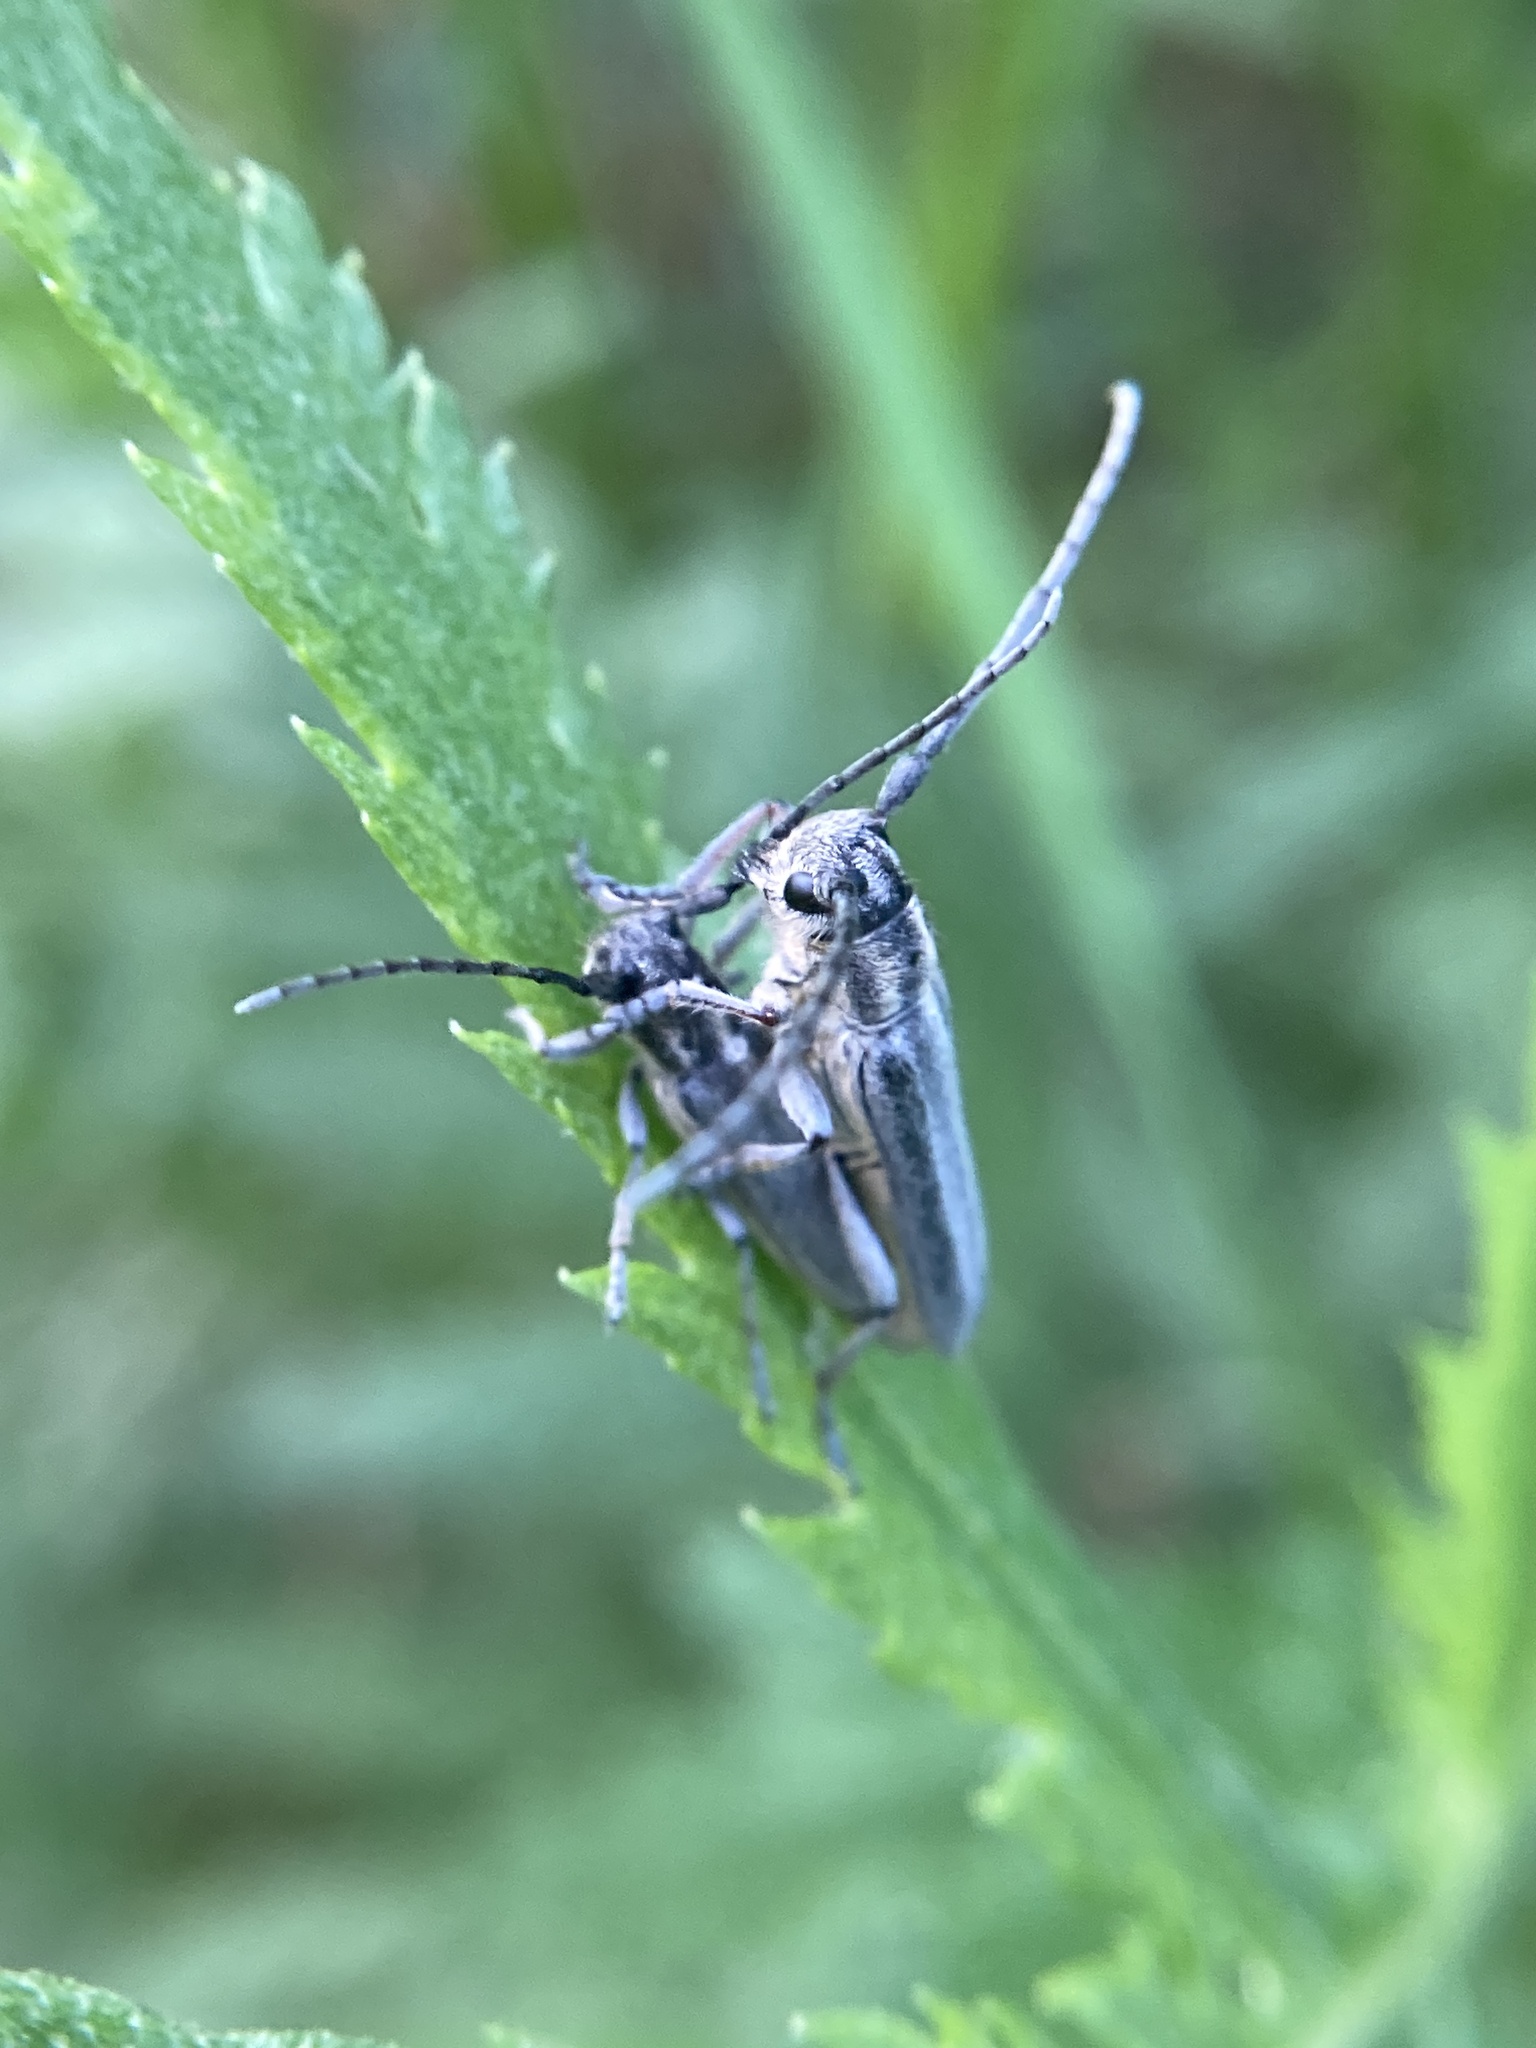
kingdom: Animalia
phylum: Arthropoda
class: Insecta
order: Coleoptera
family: Cerambycidae
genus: Phytoecia
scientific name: Phytoecia nigricornis
